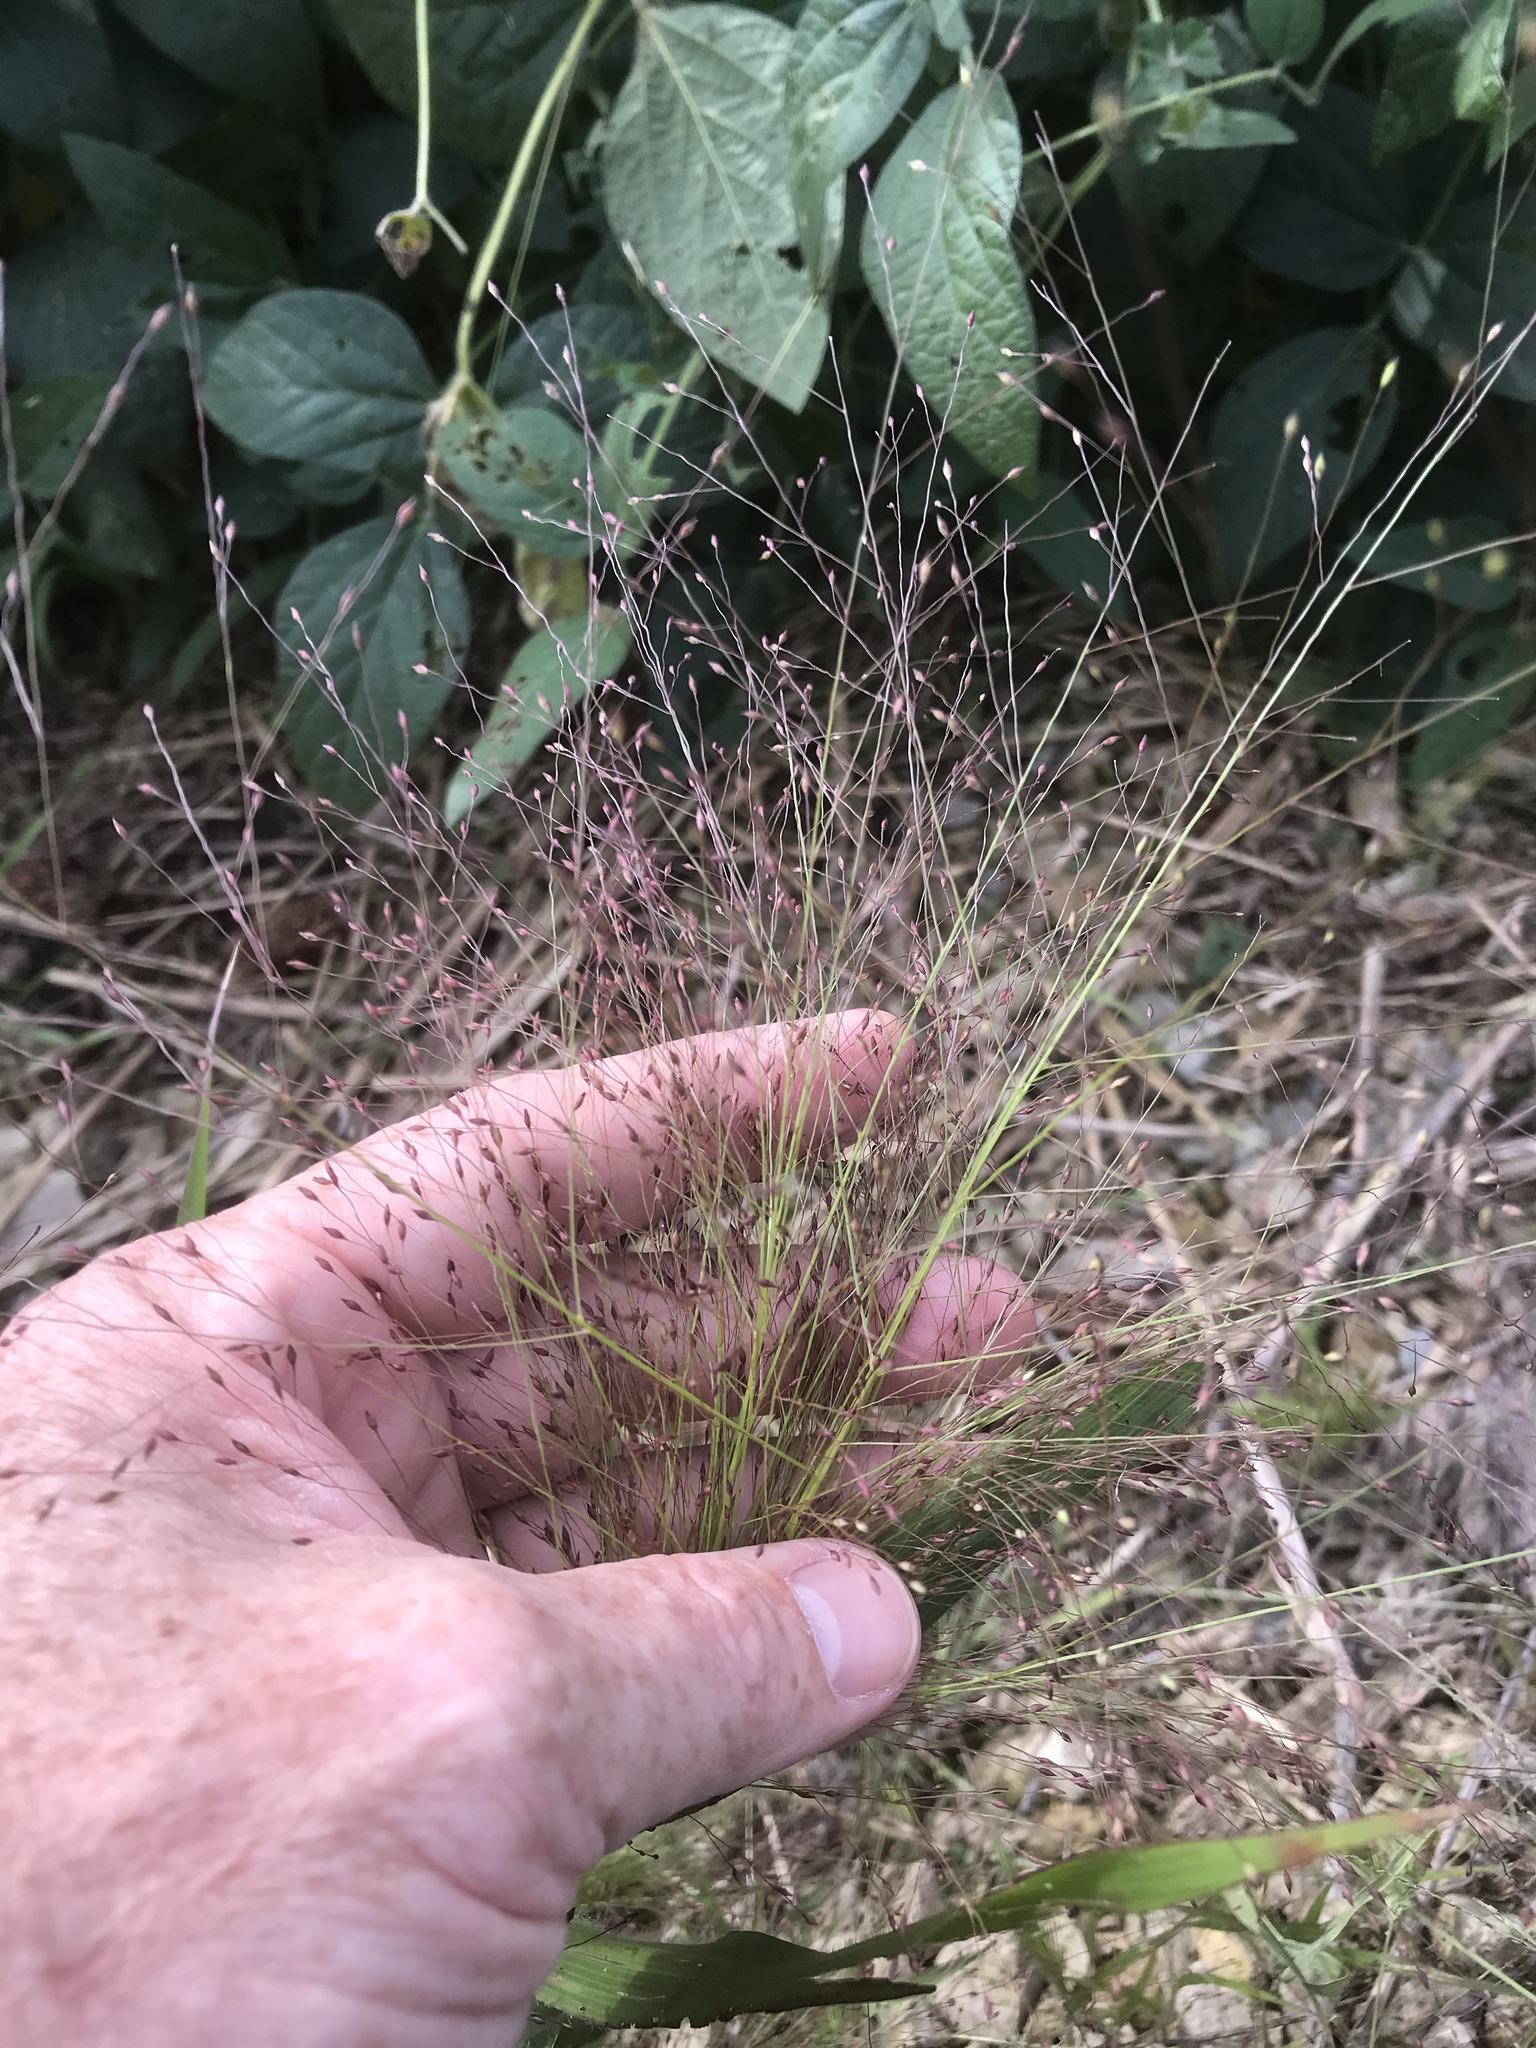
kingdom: Plantae
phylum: Tracheophyta
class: Liliopsida
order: Poales
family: Poaceae
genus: Panicum
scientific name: Panicum capillare
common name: Witch-grass
